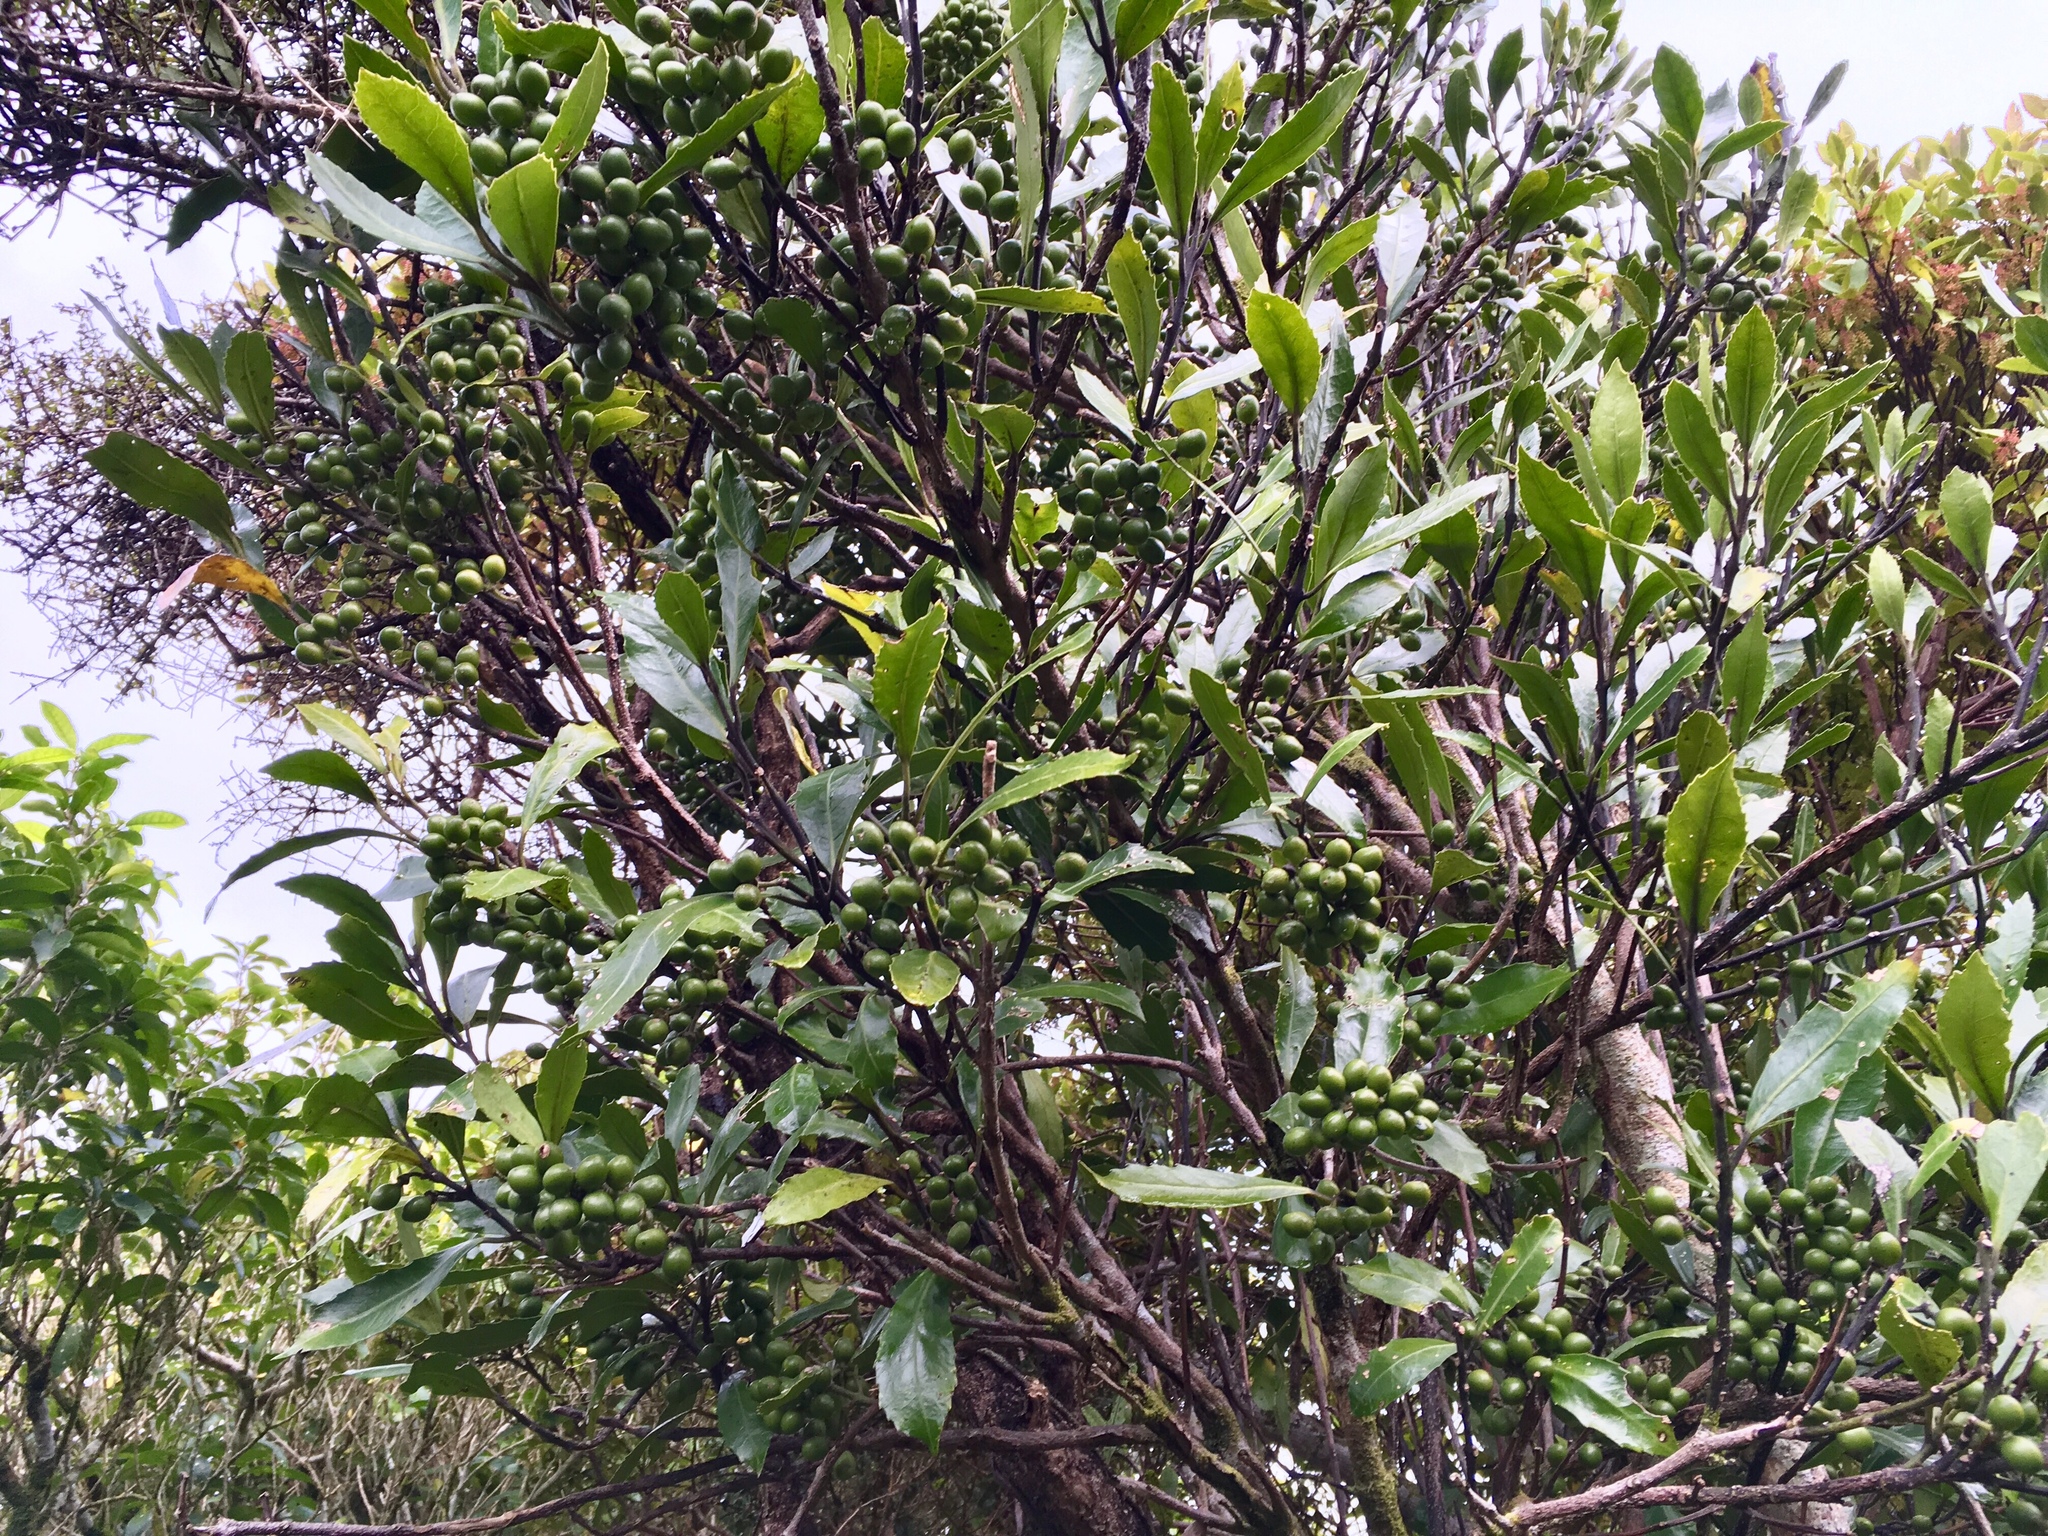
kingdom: Plantae
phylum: Tracheophyta
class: Magnoliopsida
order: Laurales
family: Monimiaceae
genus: Hedycarya
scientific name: Hedycarya arborea
